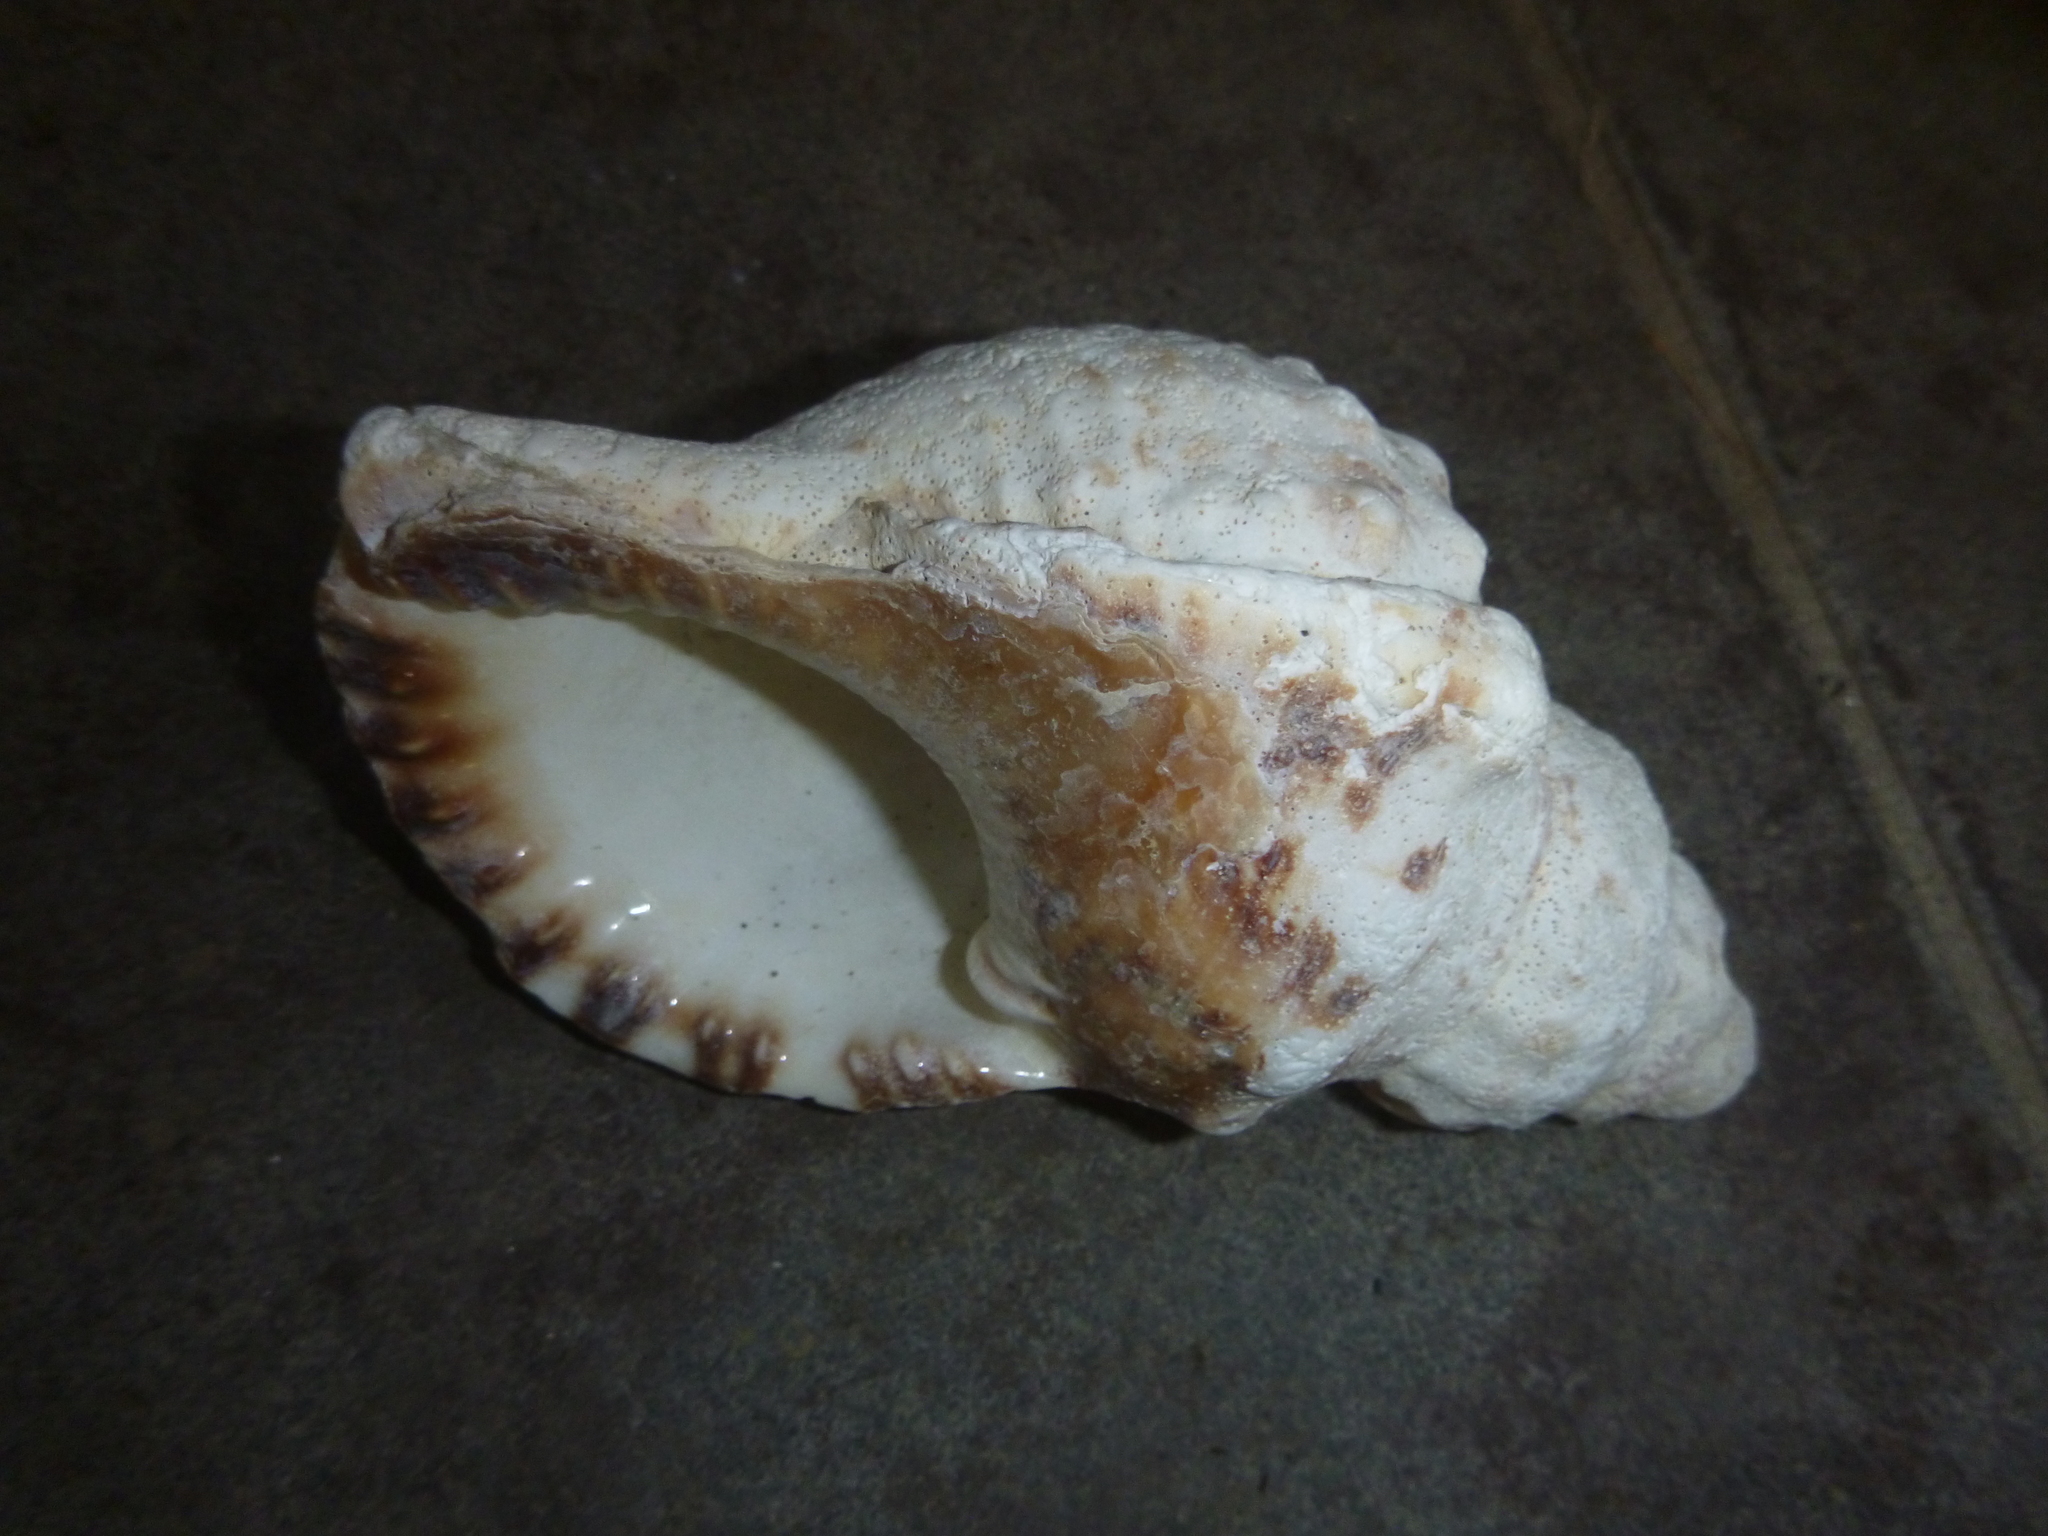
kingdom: Animalia
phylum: Mollusca
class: Gastropoda
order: Littorinimorpha
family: Charoniidae
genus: Charonia
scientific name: Charonia lampas
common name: Knobbed triton
